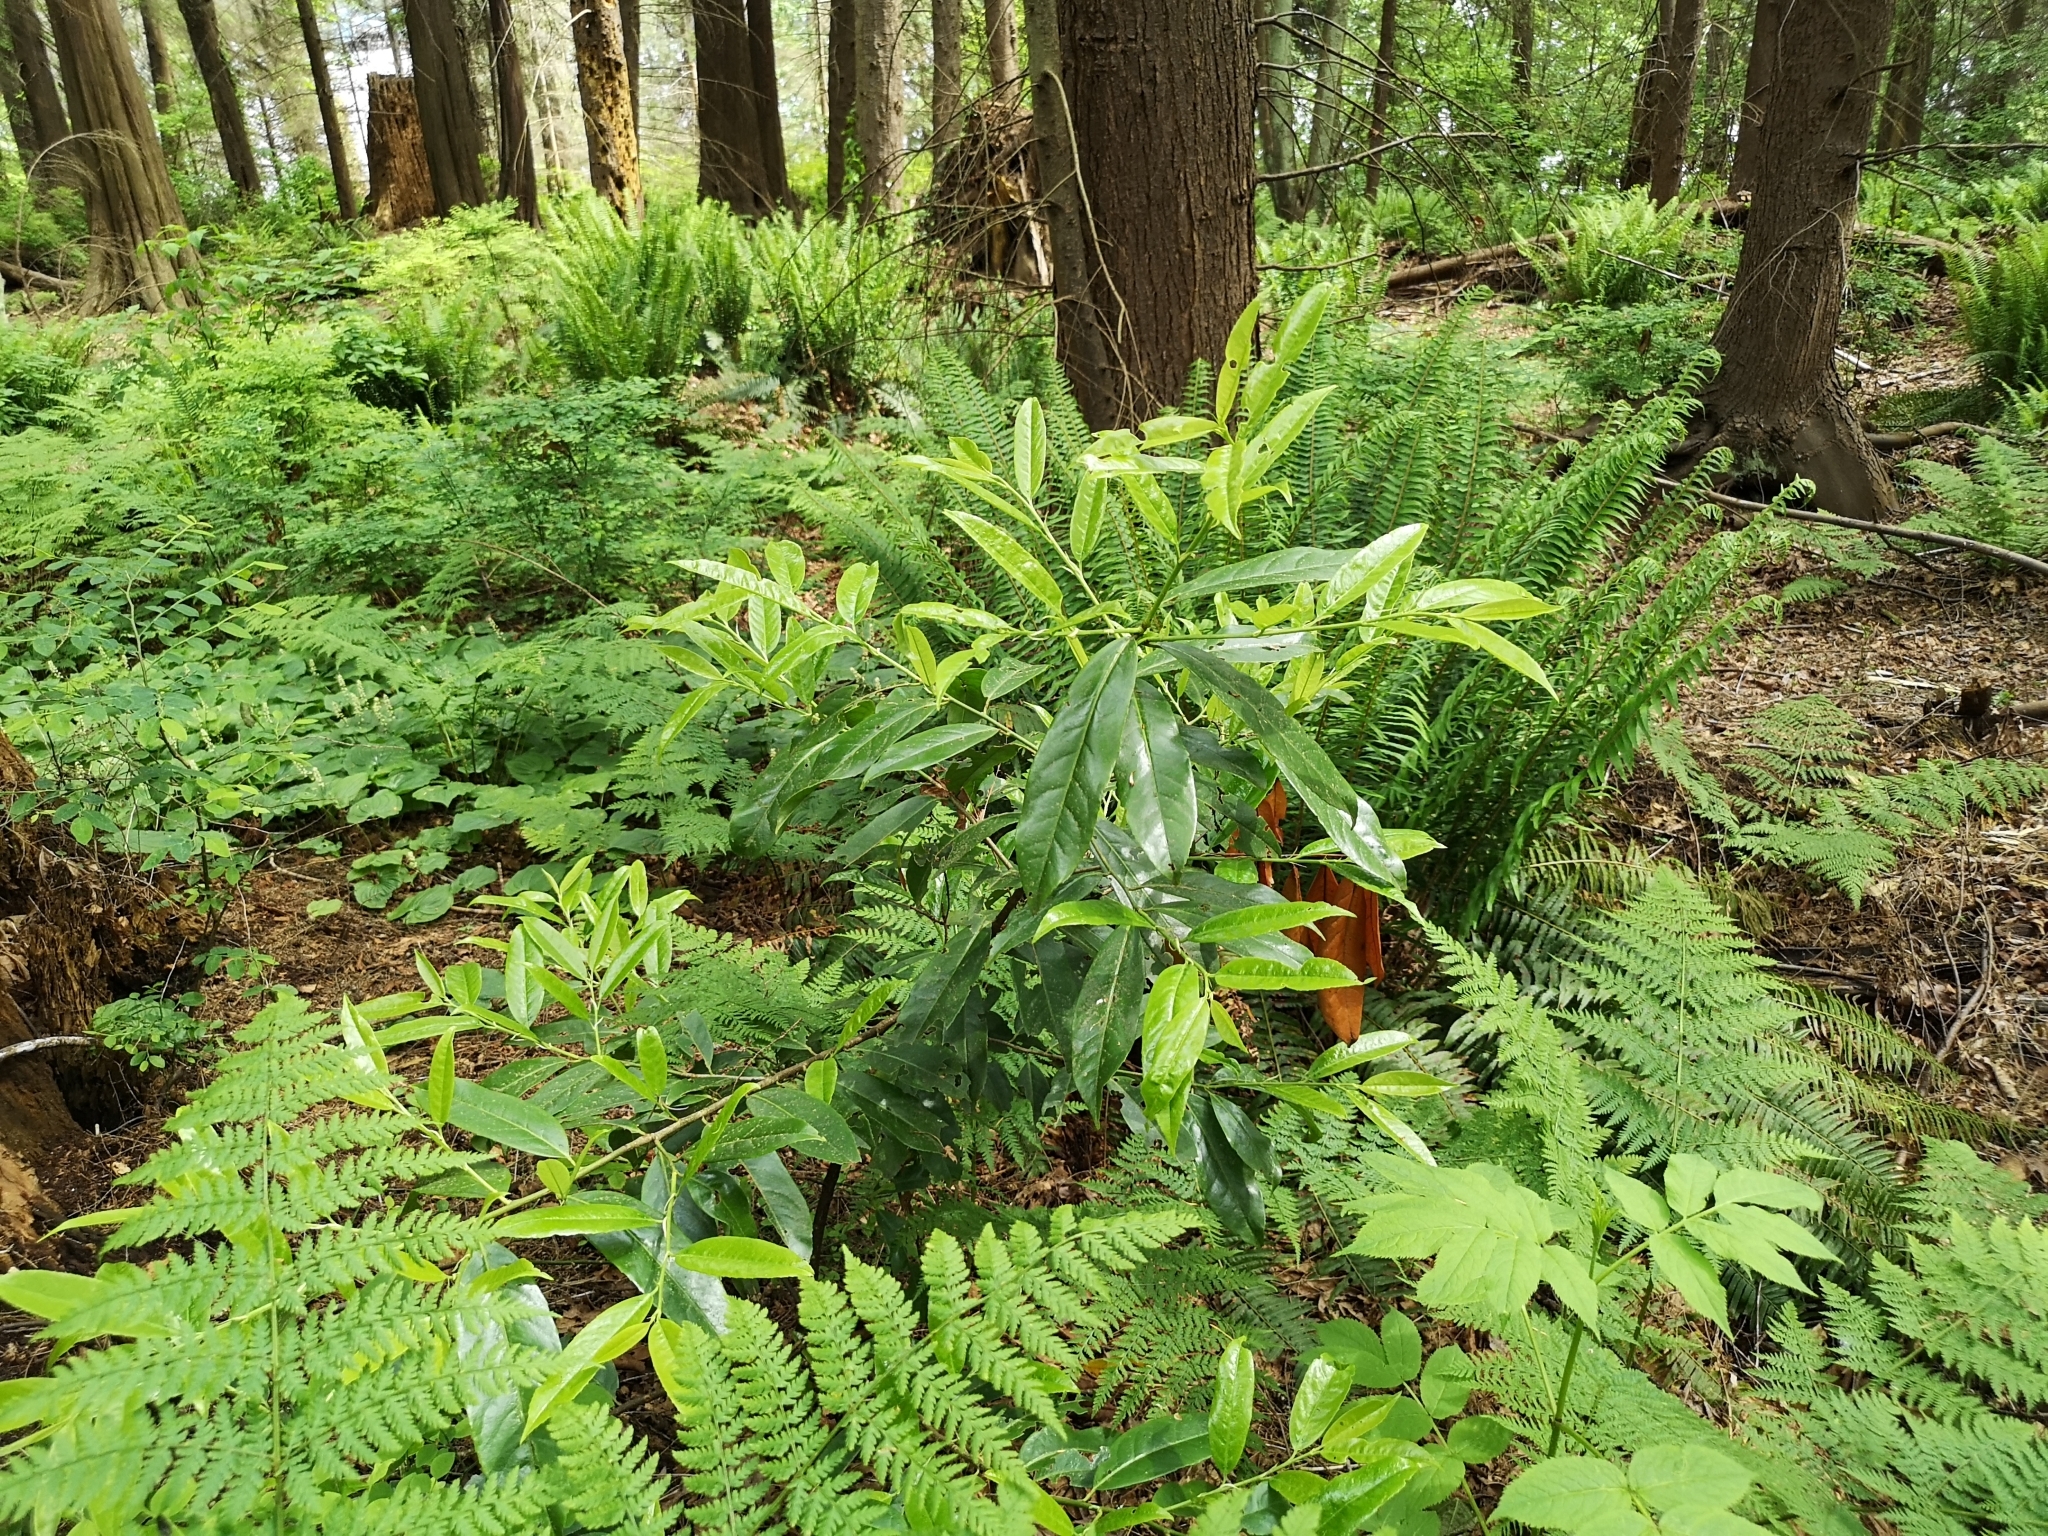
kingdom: Plantae
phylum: Tracheophyta
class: Magnoliopsida
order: Rosales
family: Rosaceae
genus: Prunus
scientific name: Prunus laurocerasus
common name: Cherry laurel
